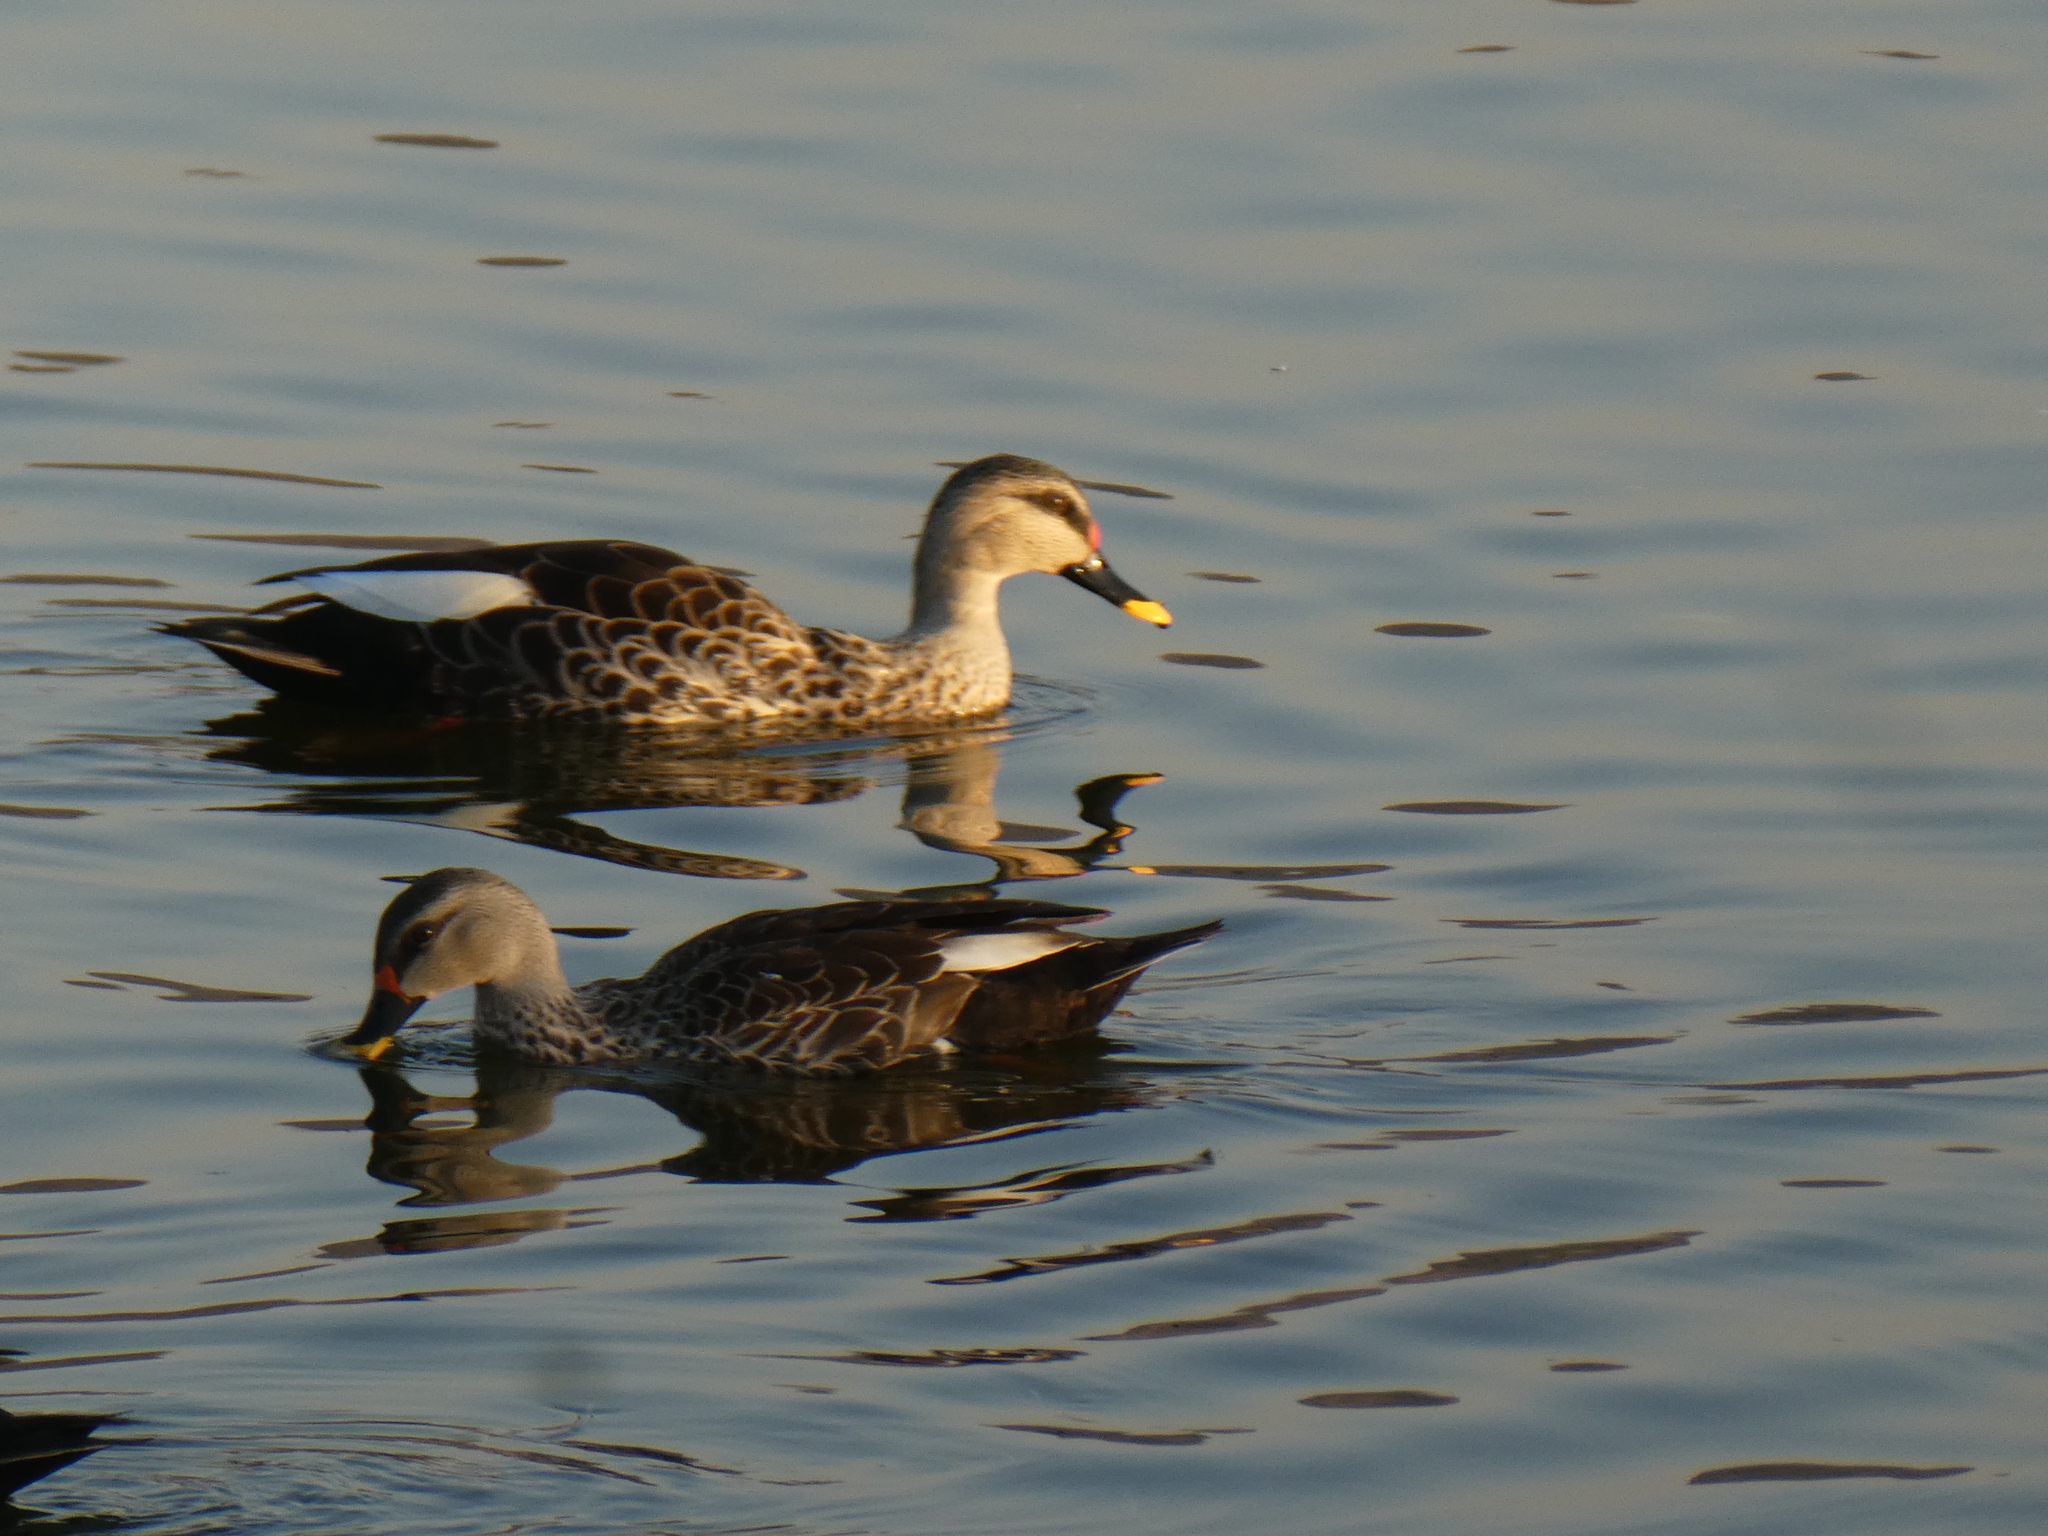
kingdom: Animalia
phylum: Chordata
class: Aves
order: Anseriformes
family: Anatidae
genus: Anas
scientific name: Anas poecilorhyncha
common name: Indian spot-billed duck
